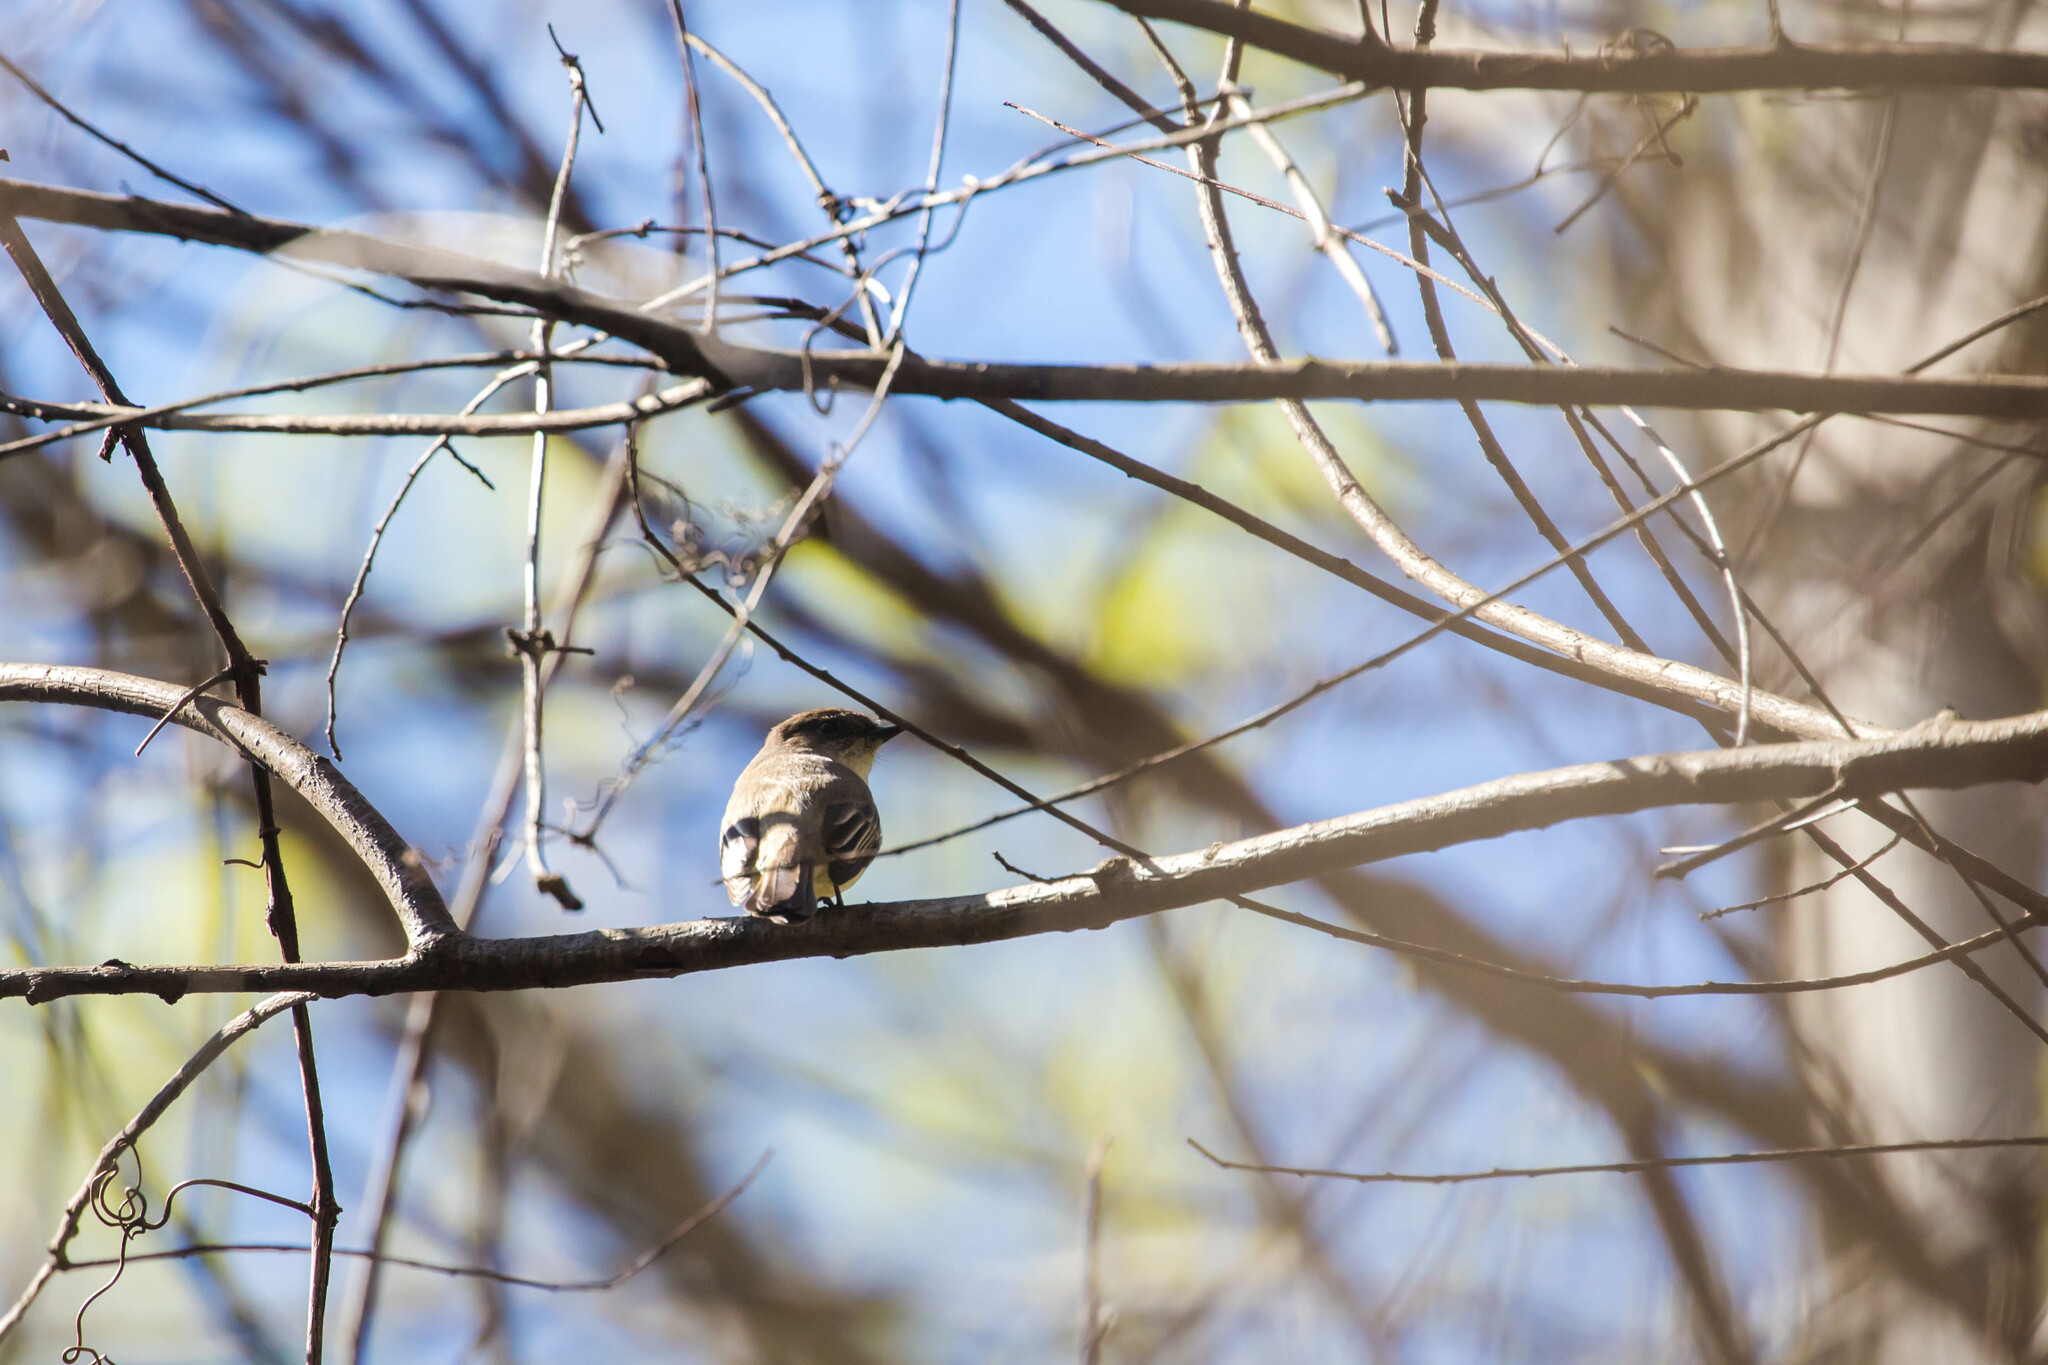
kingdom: Animalia
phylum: Chordata
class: Aves
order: Passeriformes
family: Tyrannidae
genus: Sayornis
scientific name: Sayornis phoebe
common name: Eastern phoebe
